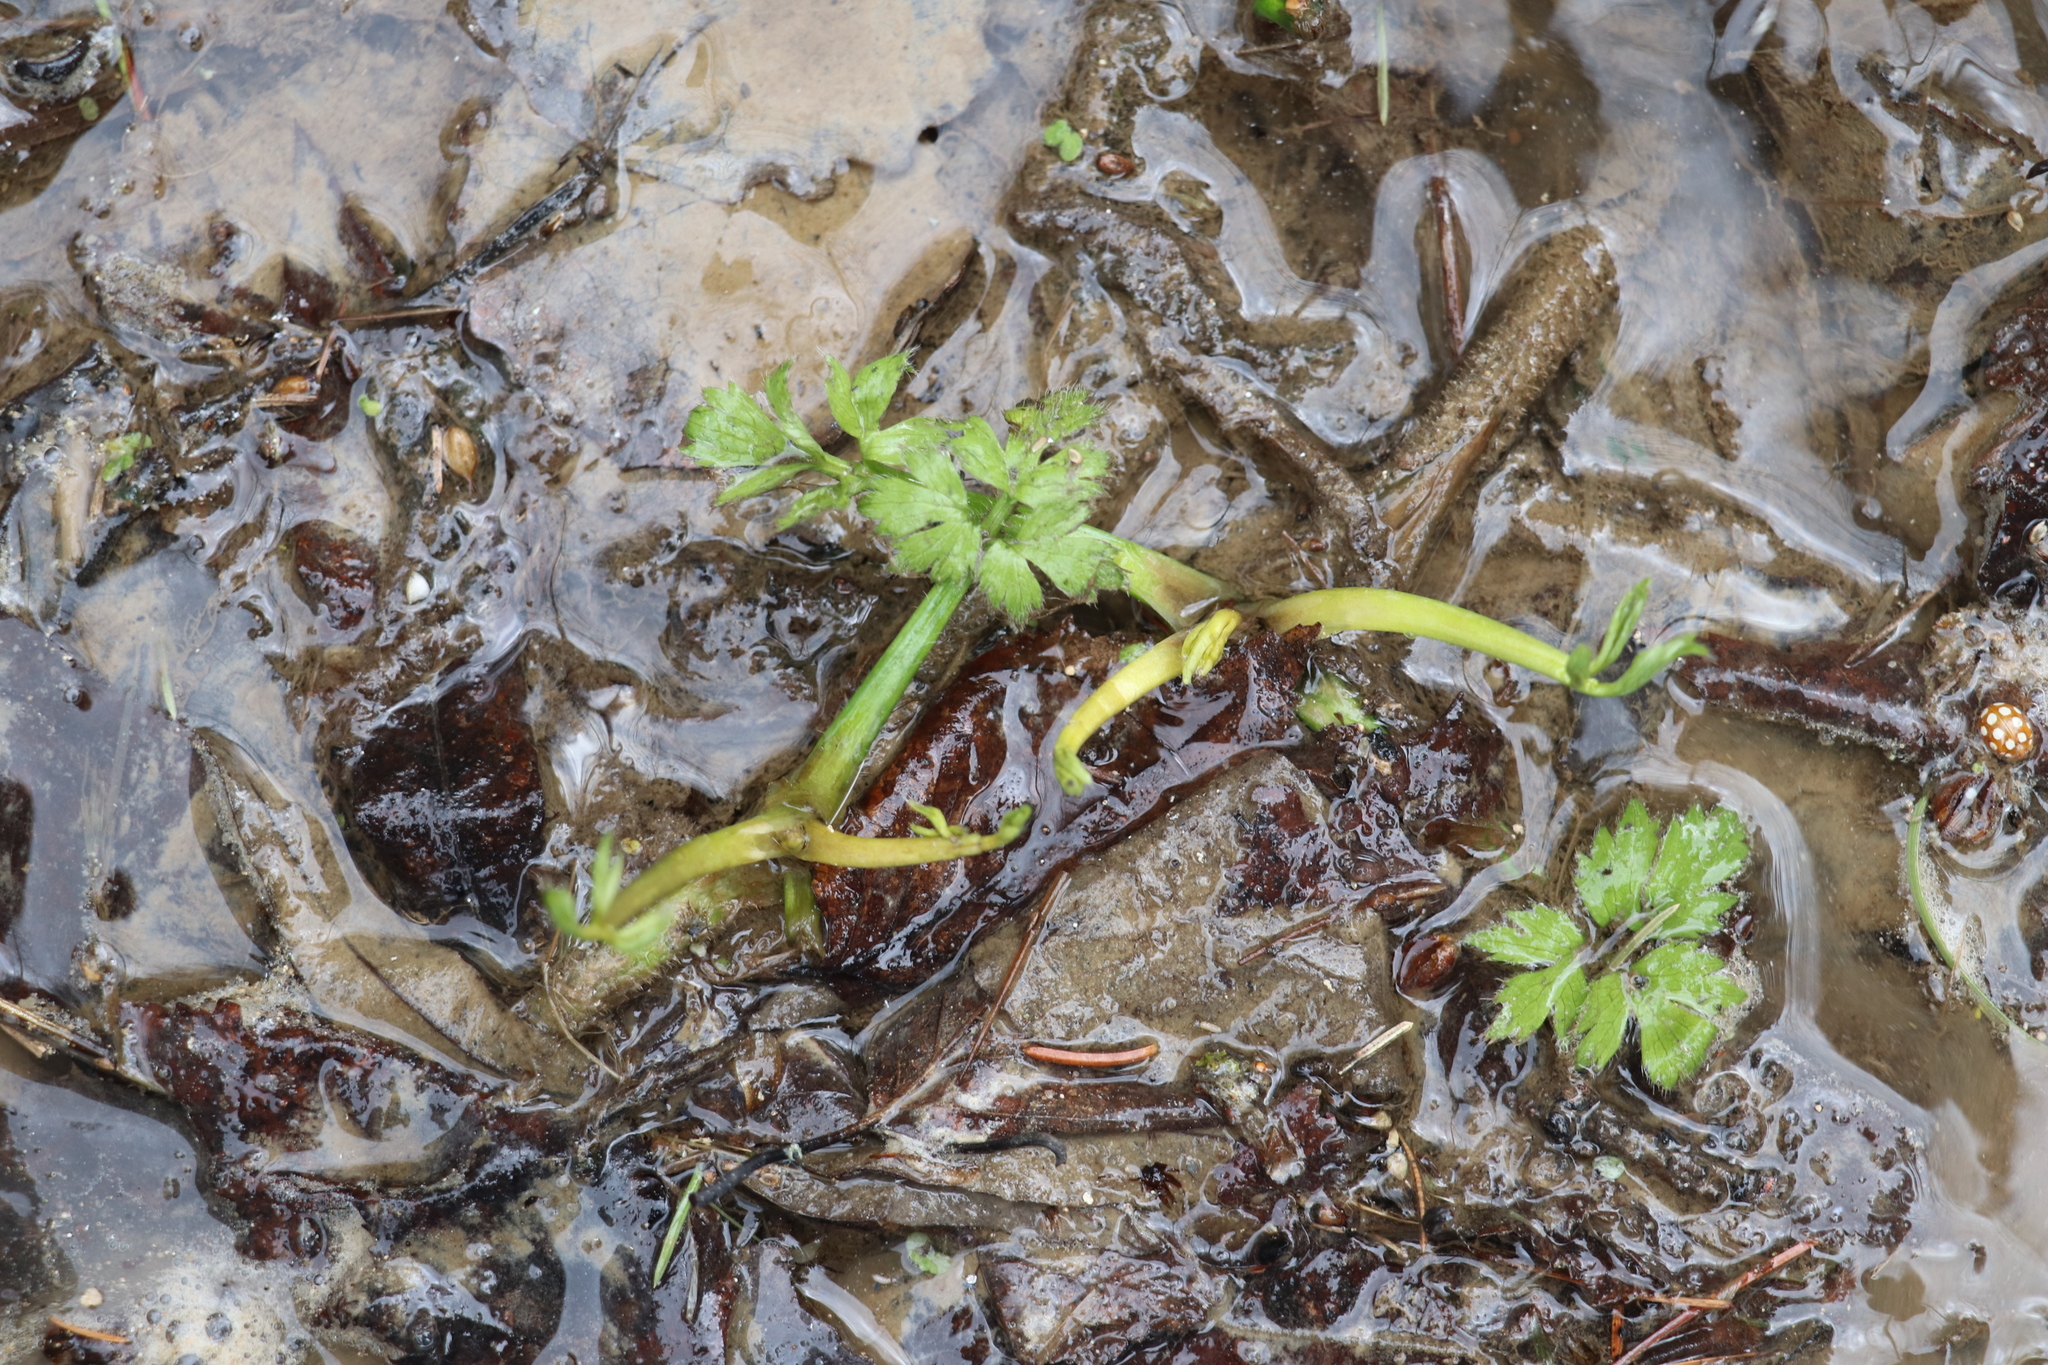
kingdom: Plantae
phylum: Tracheophyta
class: Magnoliopsida
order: Ranunculales
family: Ranunculaceae
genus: Ranunculus
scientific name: Ranunculus repens
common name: Creeping buttercup
